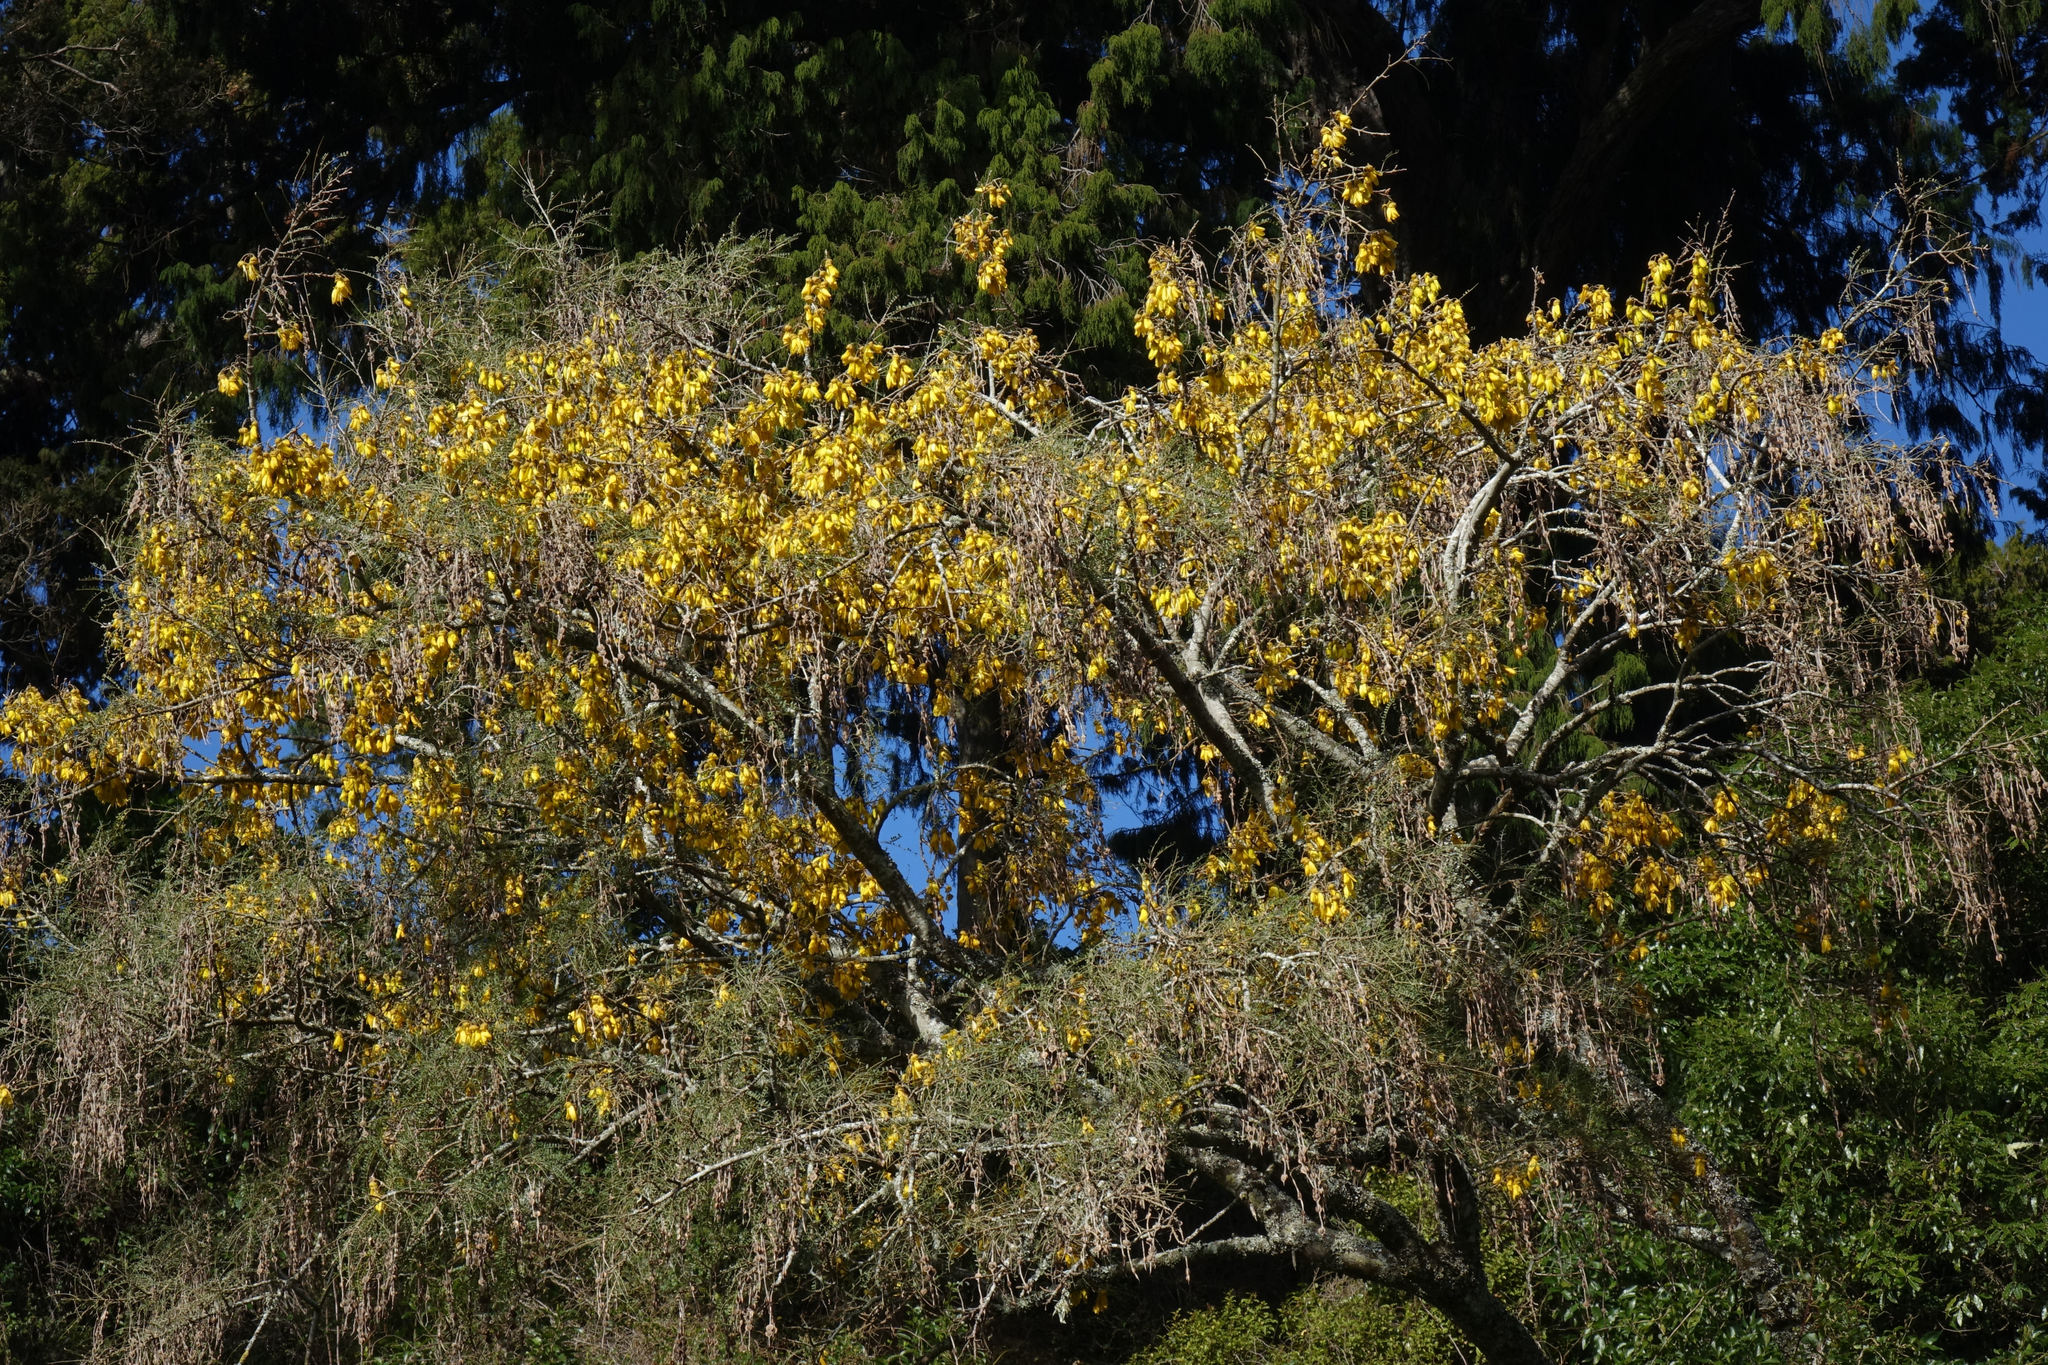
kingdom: Plantae
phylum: Tracheophyta
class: Magnoliopsida
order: Fabales
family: Fabaceae
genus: Sophora
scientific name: Sophora microphylla
